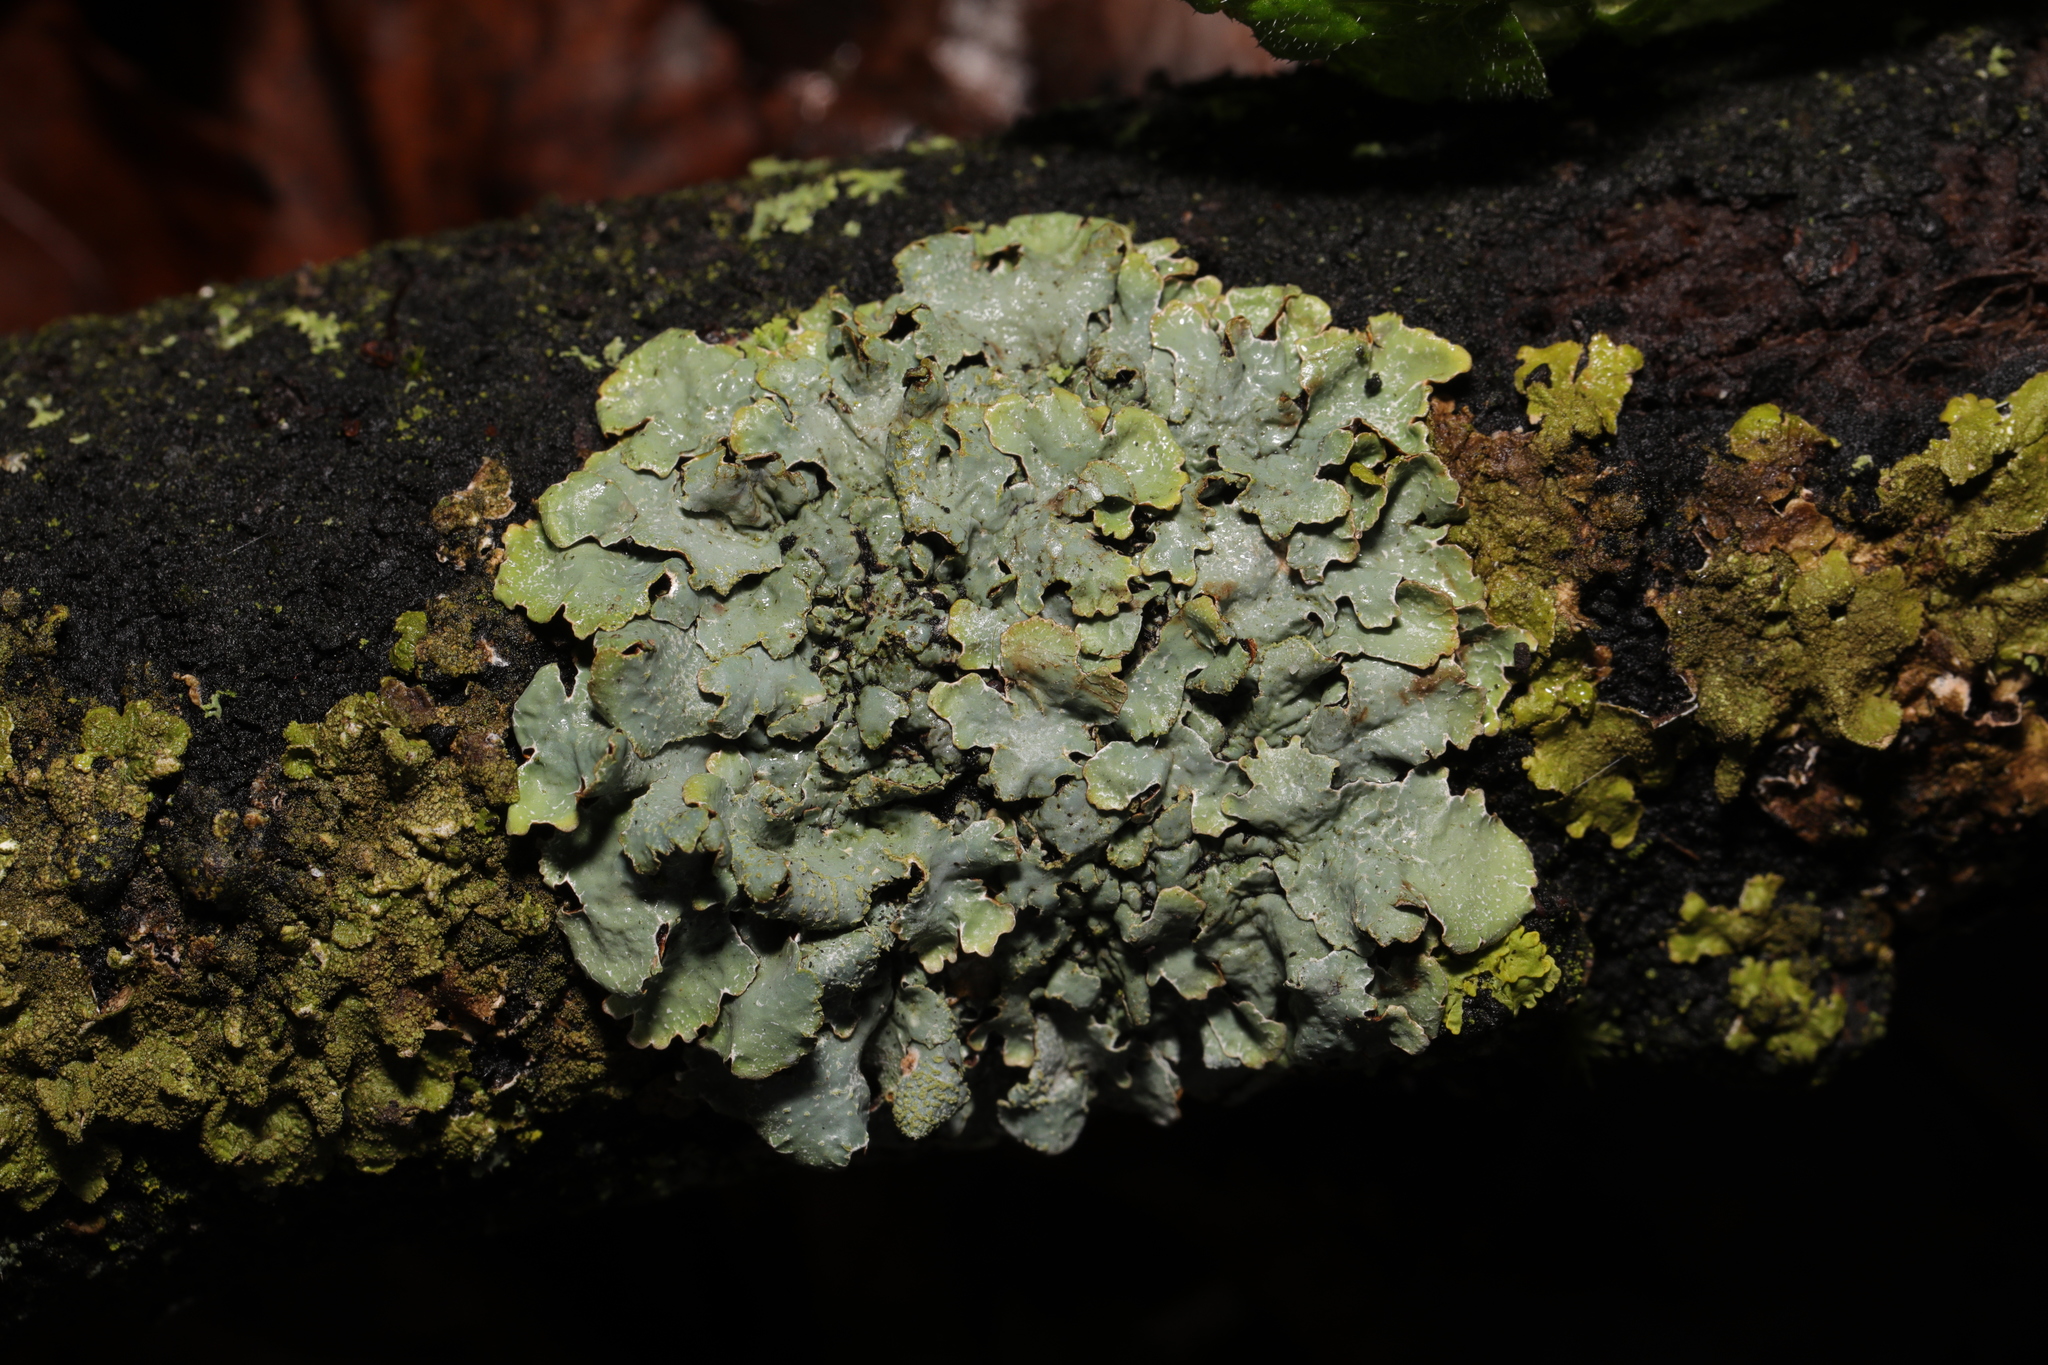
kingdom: Fungi
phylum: Ascomycota
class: Lecanoromycetes
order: Lecanorales
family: Parmeliaceae
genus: Parmelia
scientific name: Parmelia sulcata
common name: Netted shield lichen
